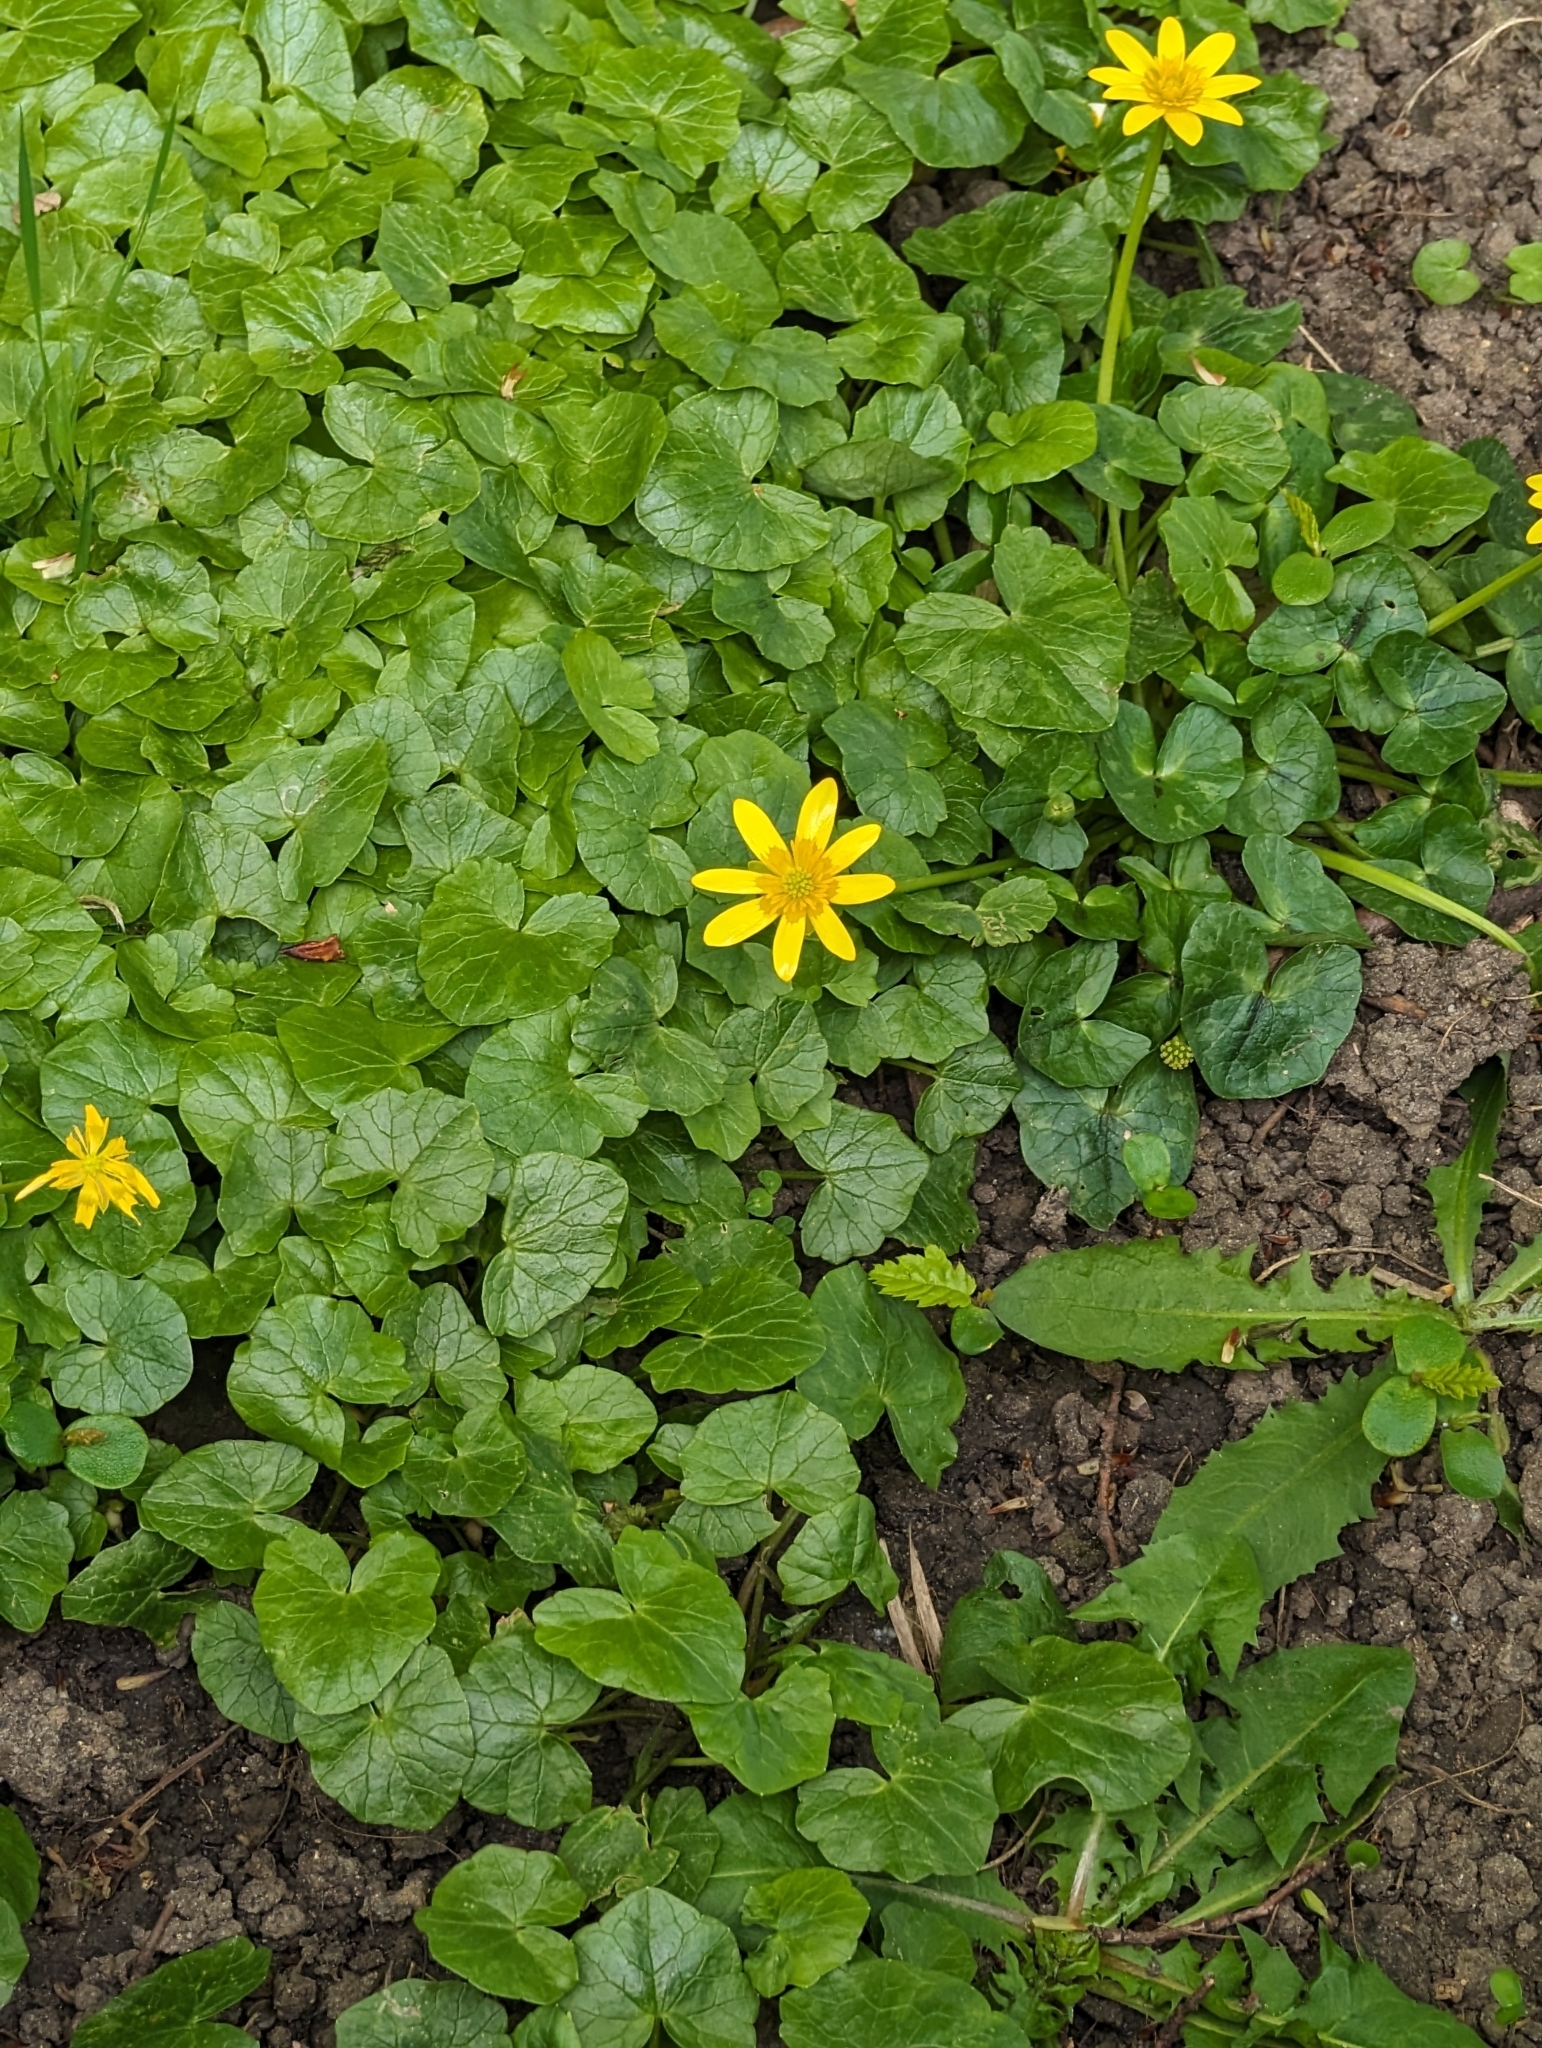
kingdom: Plantae
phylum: Tracheophyta
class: Magnoliopsida
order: Ranunculales
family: Ranunculaceae
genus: Ficaria
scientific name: Ficaria verna
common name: Lesser celandine
